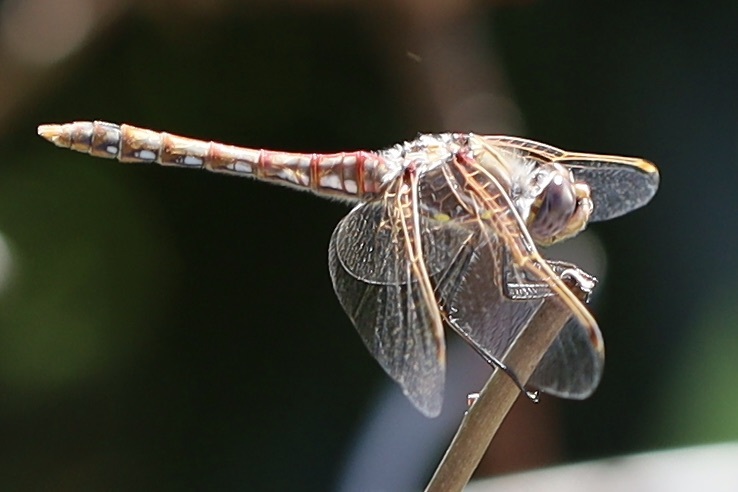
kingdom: Animalia
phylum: Arthropoda
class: Insecta
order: Odonata
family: Libellulidae
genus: Sympetrum
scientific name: Sympetrum corruptum
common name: Variegated meadowhawk
